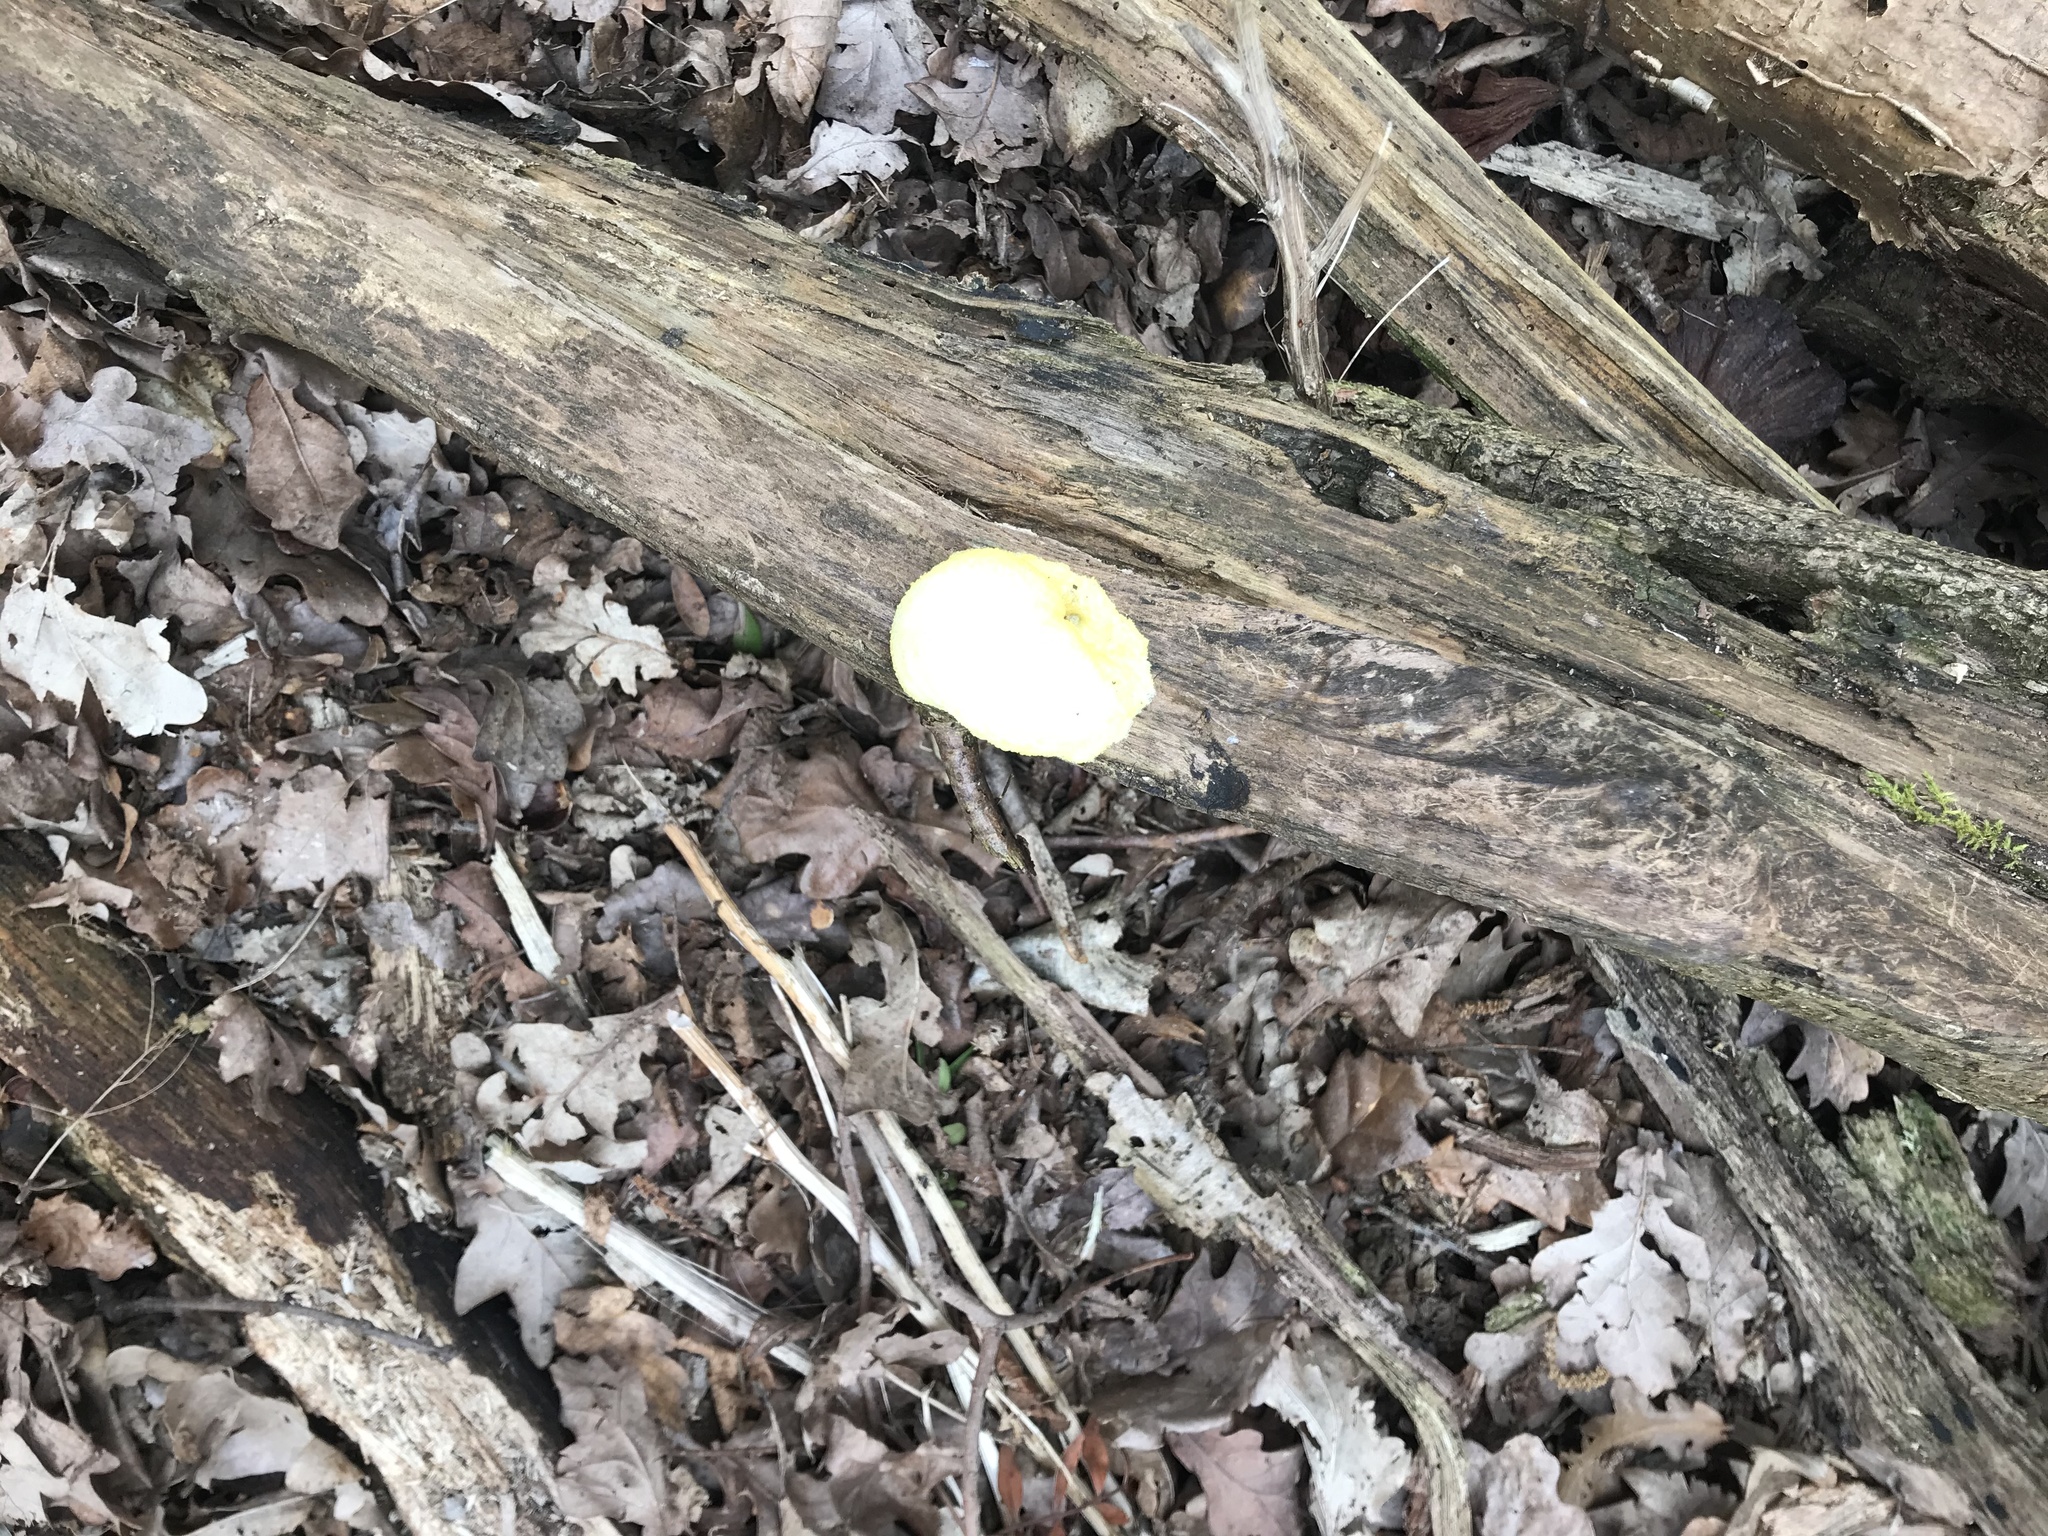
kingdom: Protozoa
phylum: Mycetozoa
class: Myxomycetes
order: Cribrariales
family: Tubiferaceae
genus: Reticularia
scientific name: Reticularia lycoperdon
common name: False puffball
